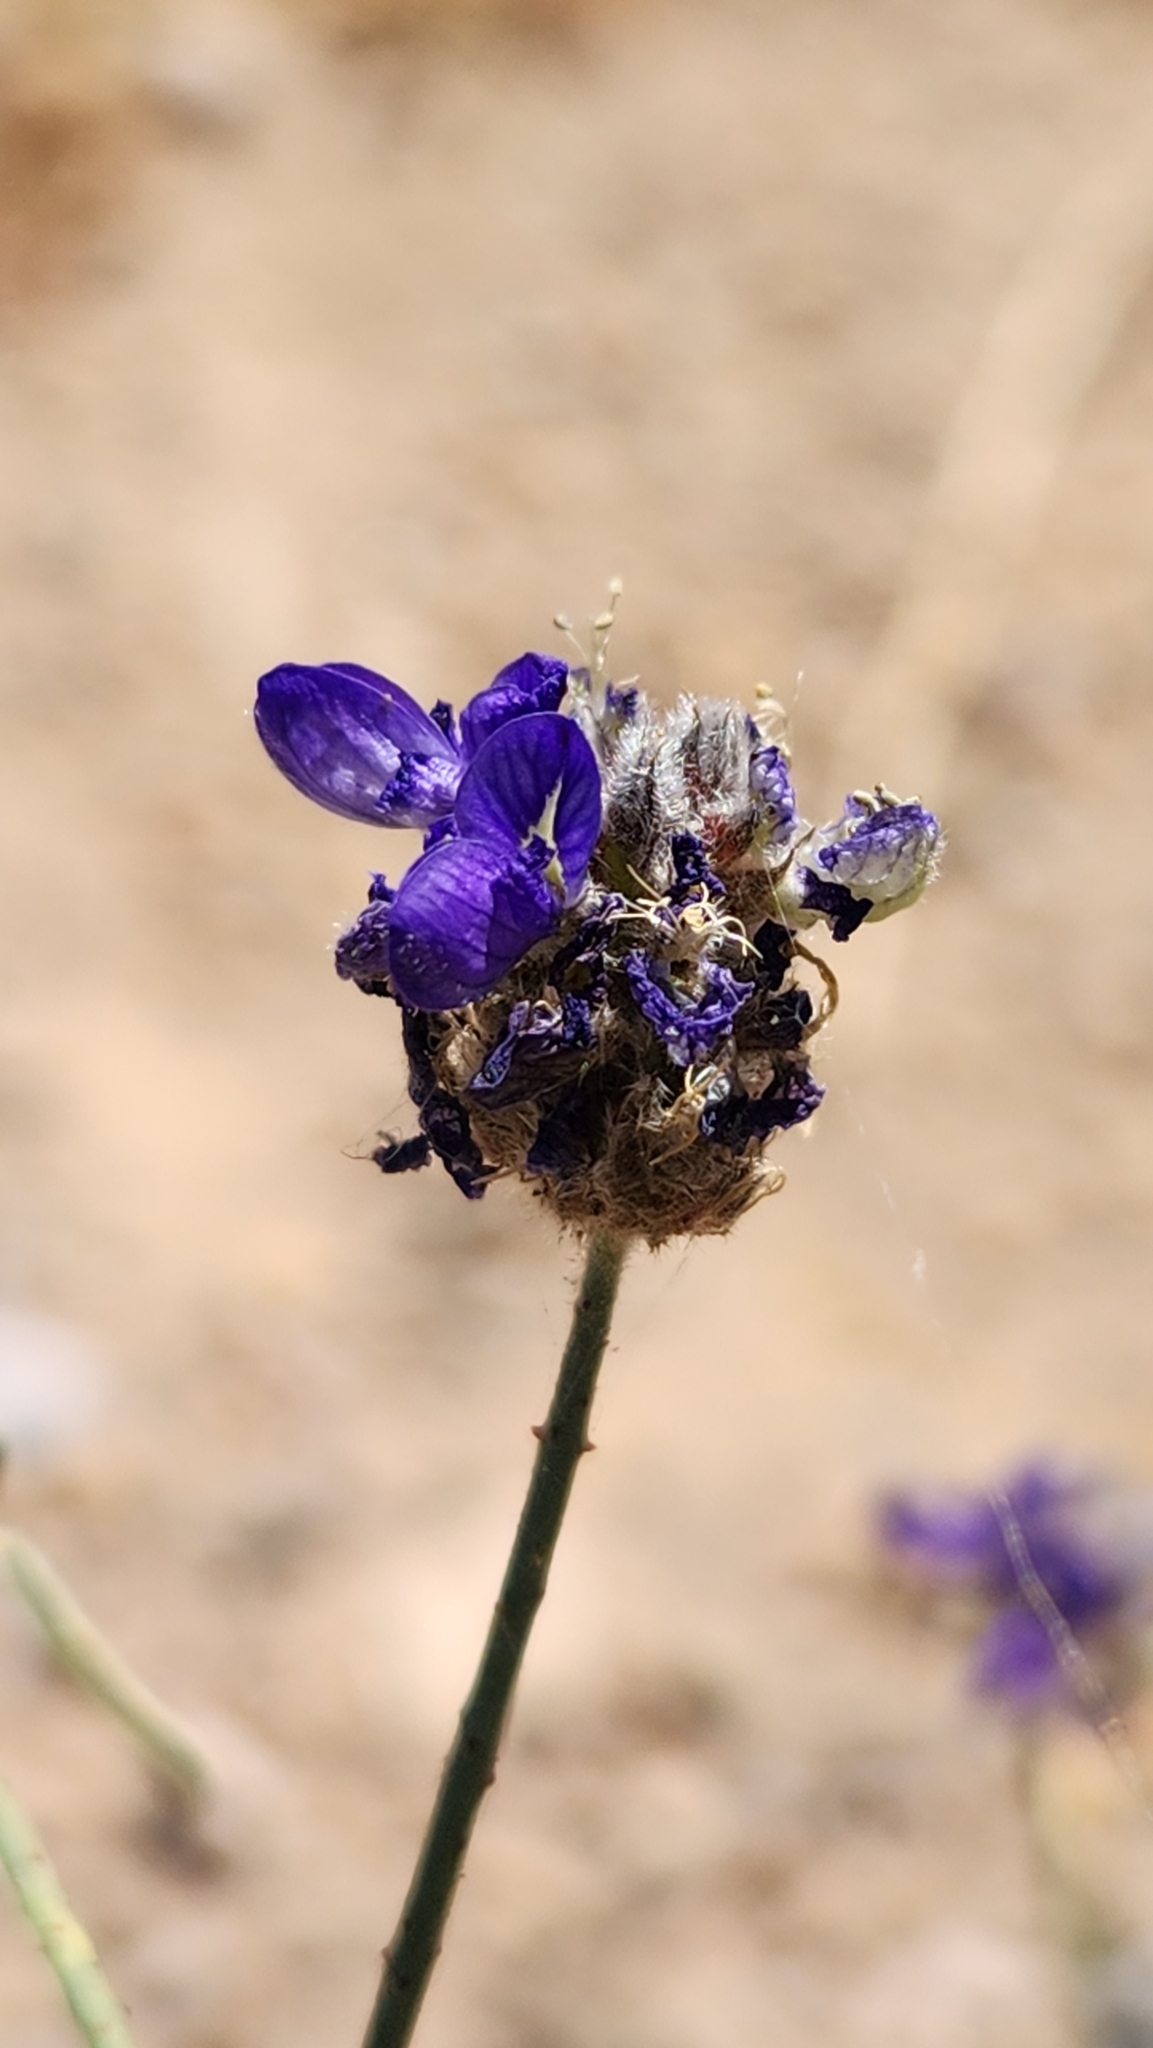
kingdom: Plantae
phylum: Tracheophyta
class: Magnoliopsida
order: Fabales
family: Fabaceae
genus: Psorothamnus
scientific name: Psorothamnus emoryi
